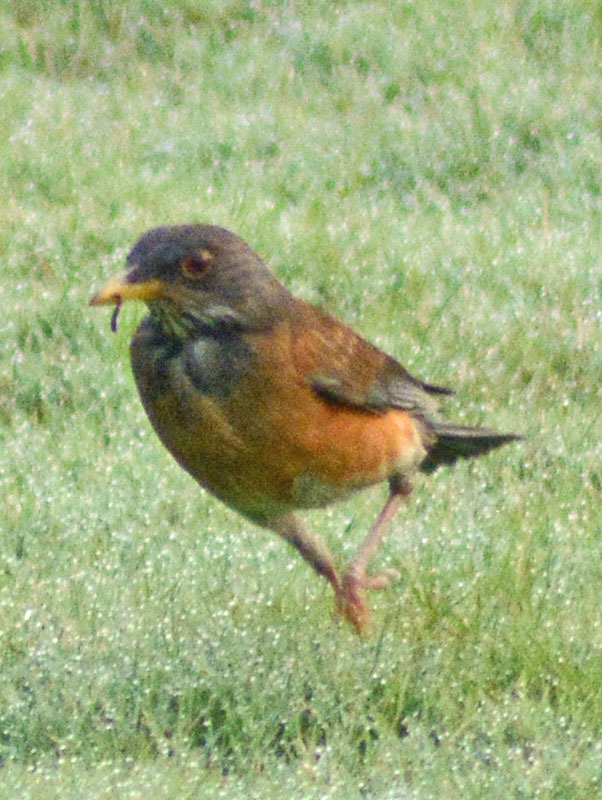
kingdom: Animalia
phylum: Chordata
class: Aves
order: Passeriformes
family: Turdidae
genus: Turdus
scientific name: Turdus rufopalliatus
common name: Rufous-backed robin
